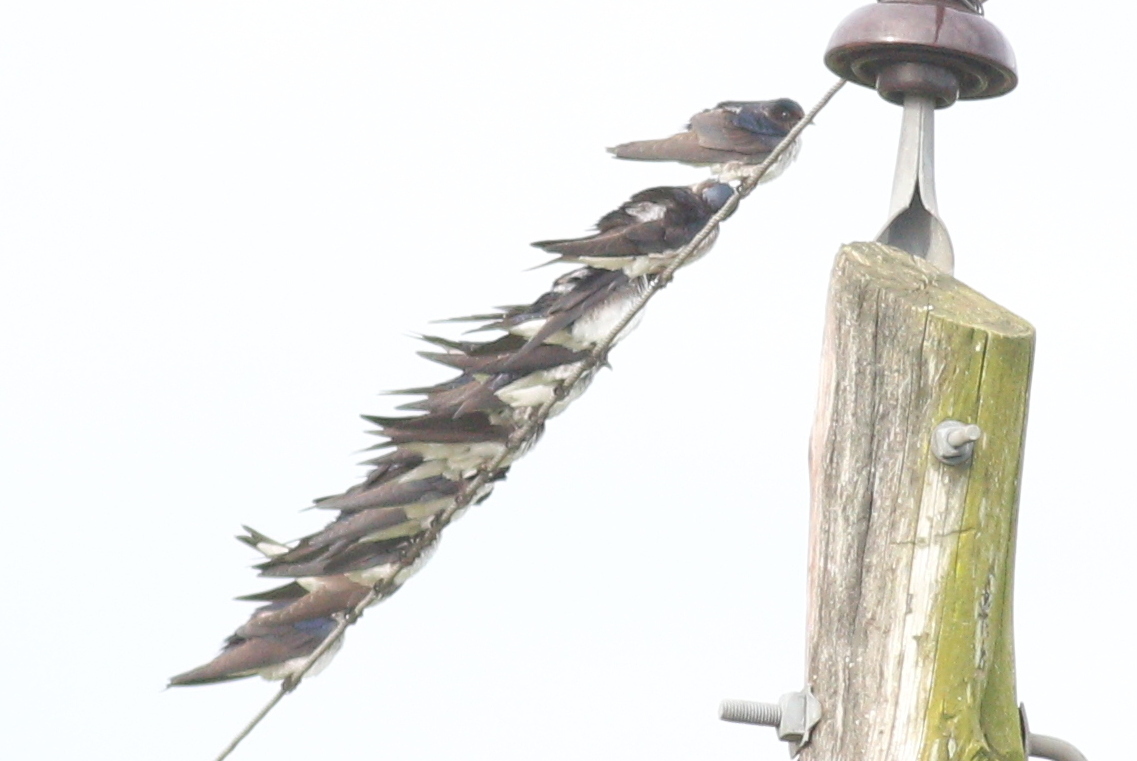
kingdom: Animalia
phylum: Chordata
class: Aves
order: Passeriformes
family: Hirundinidae
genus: Progne
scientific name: Progne chalybea
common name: Grey-breasted martin
